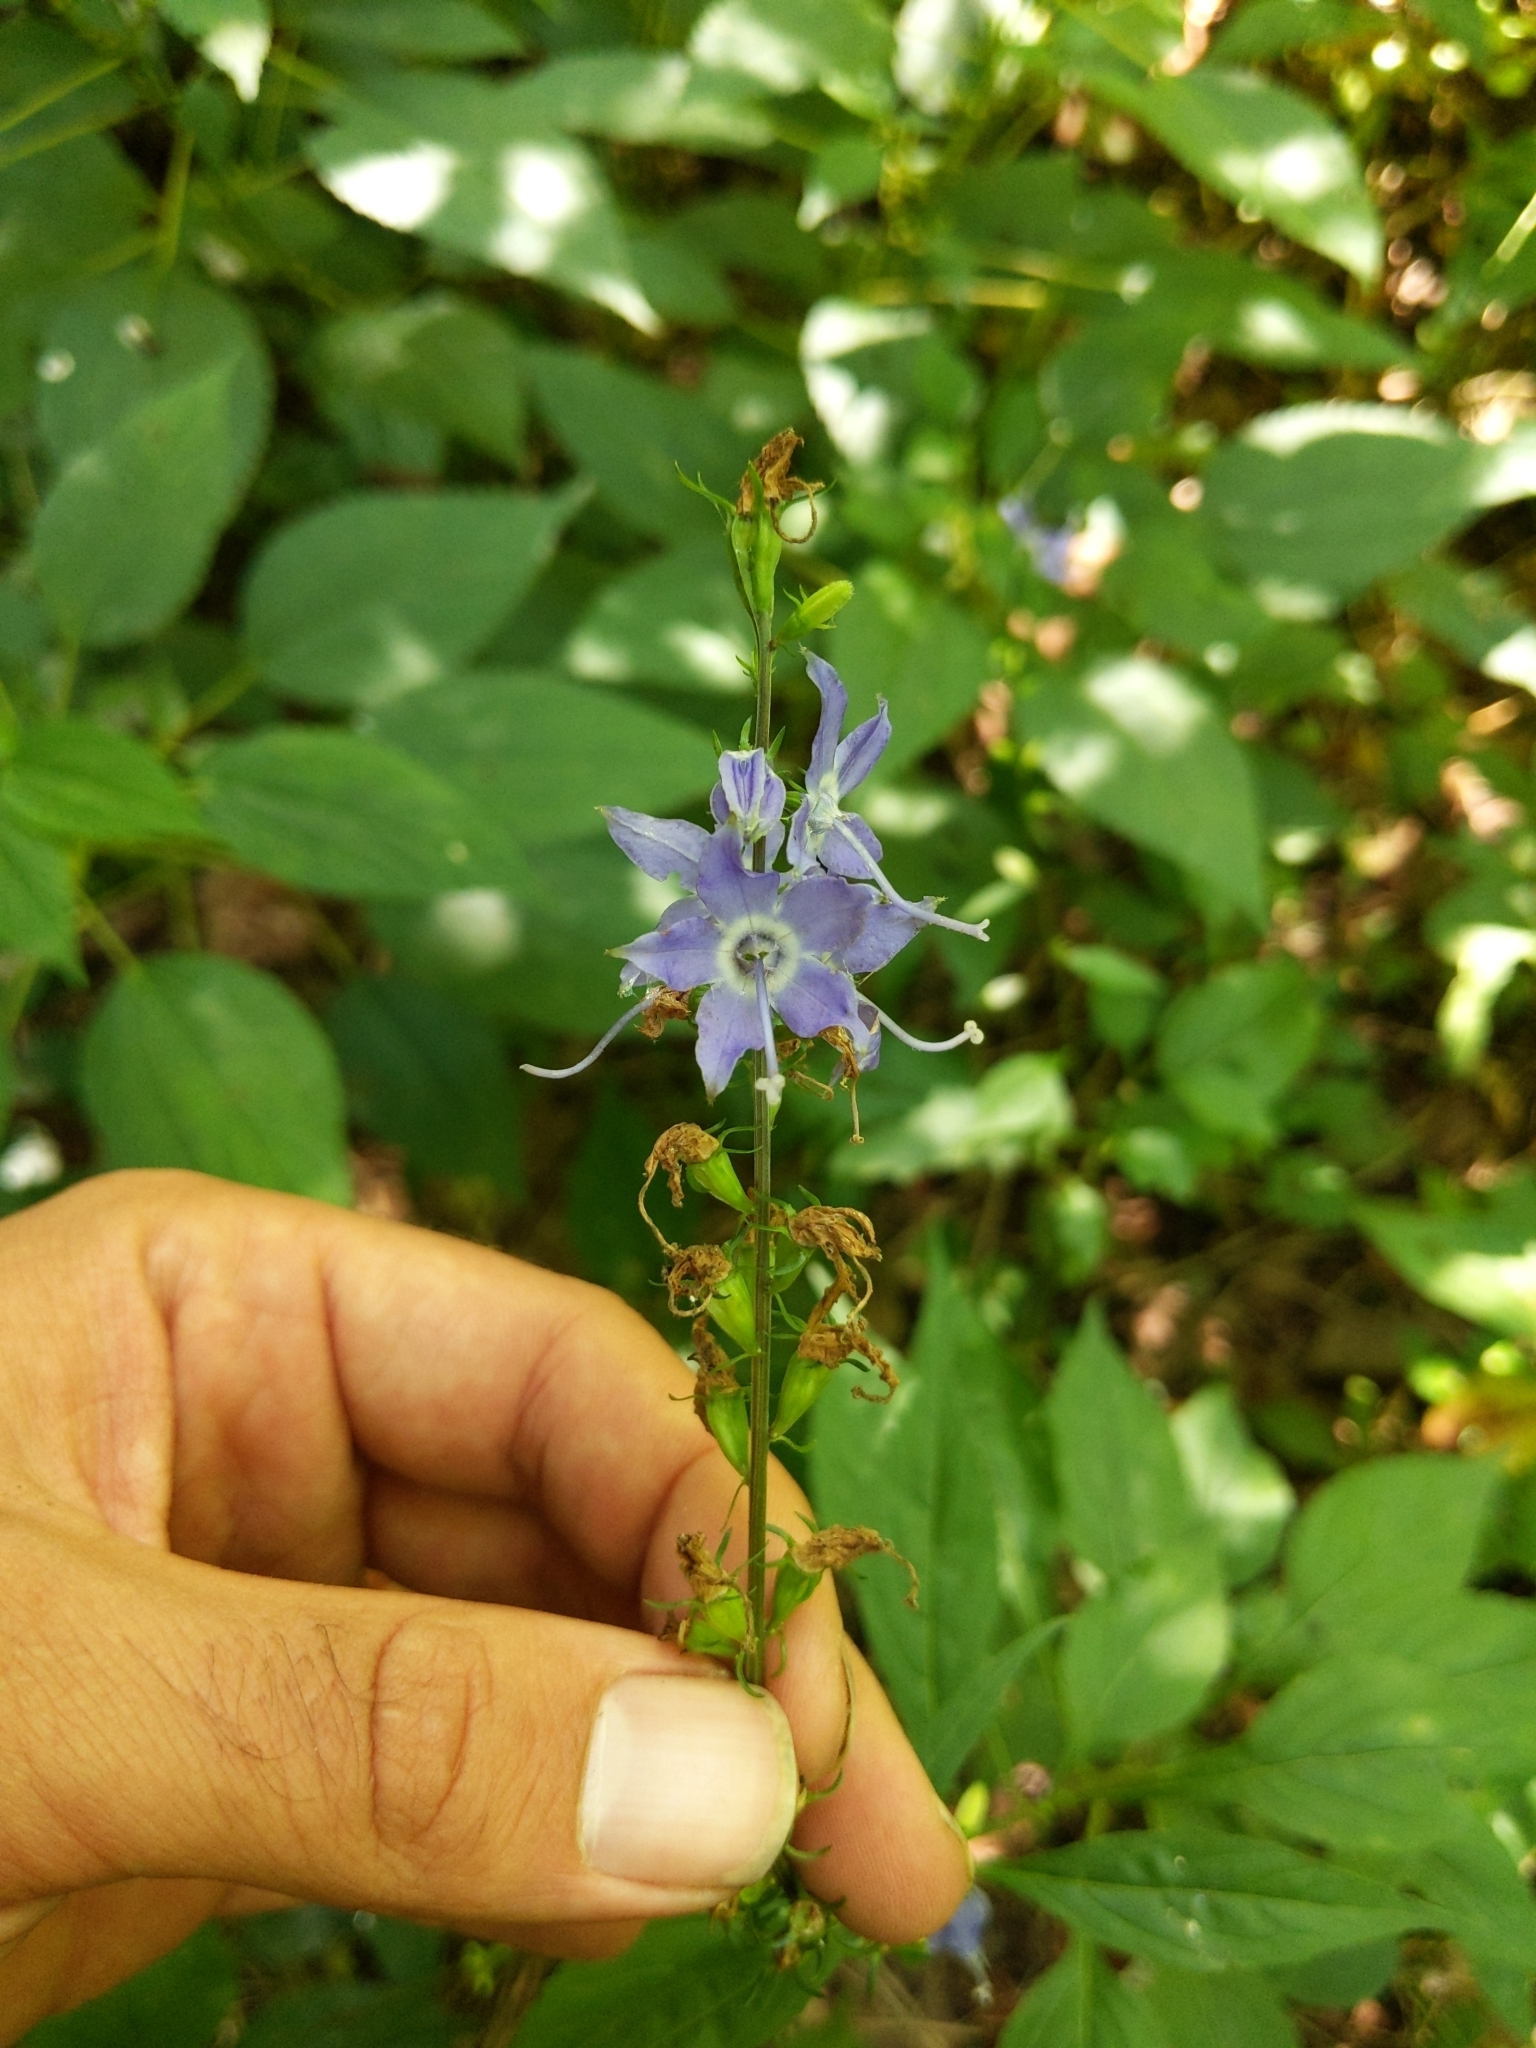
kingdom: Plantae
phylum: Tracheophyta
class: Magnoliopsida
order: Asterales
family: Campanulaceae
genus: Campanulastrum
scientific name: Campanulastrum americanum
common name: American bellflower
